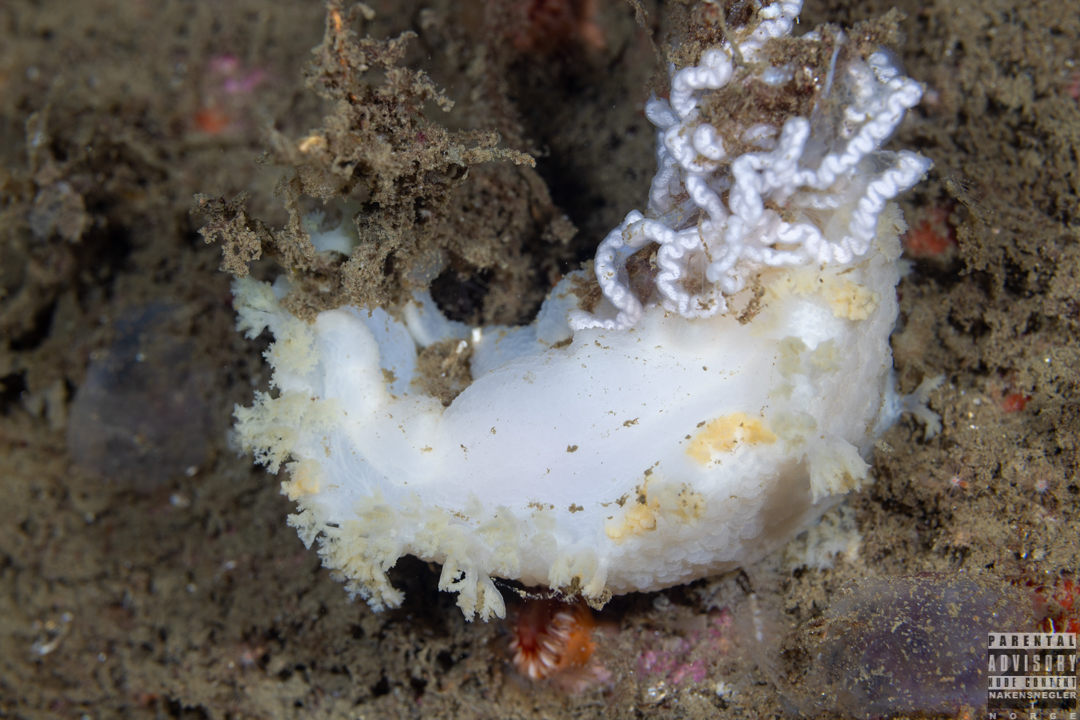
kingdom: Animalia
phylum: Mollusca
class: Gastropoda
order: Nudibranchia
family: Tritoniidae
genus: Tritonia
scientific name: Tritonia hombergii
